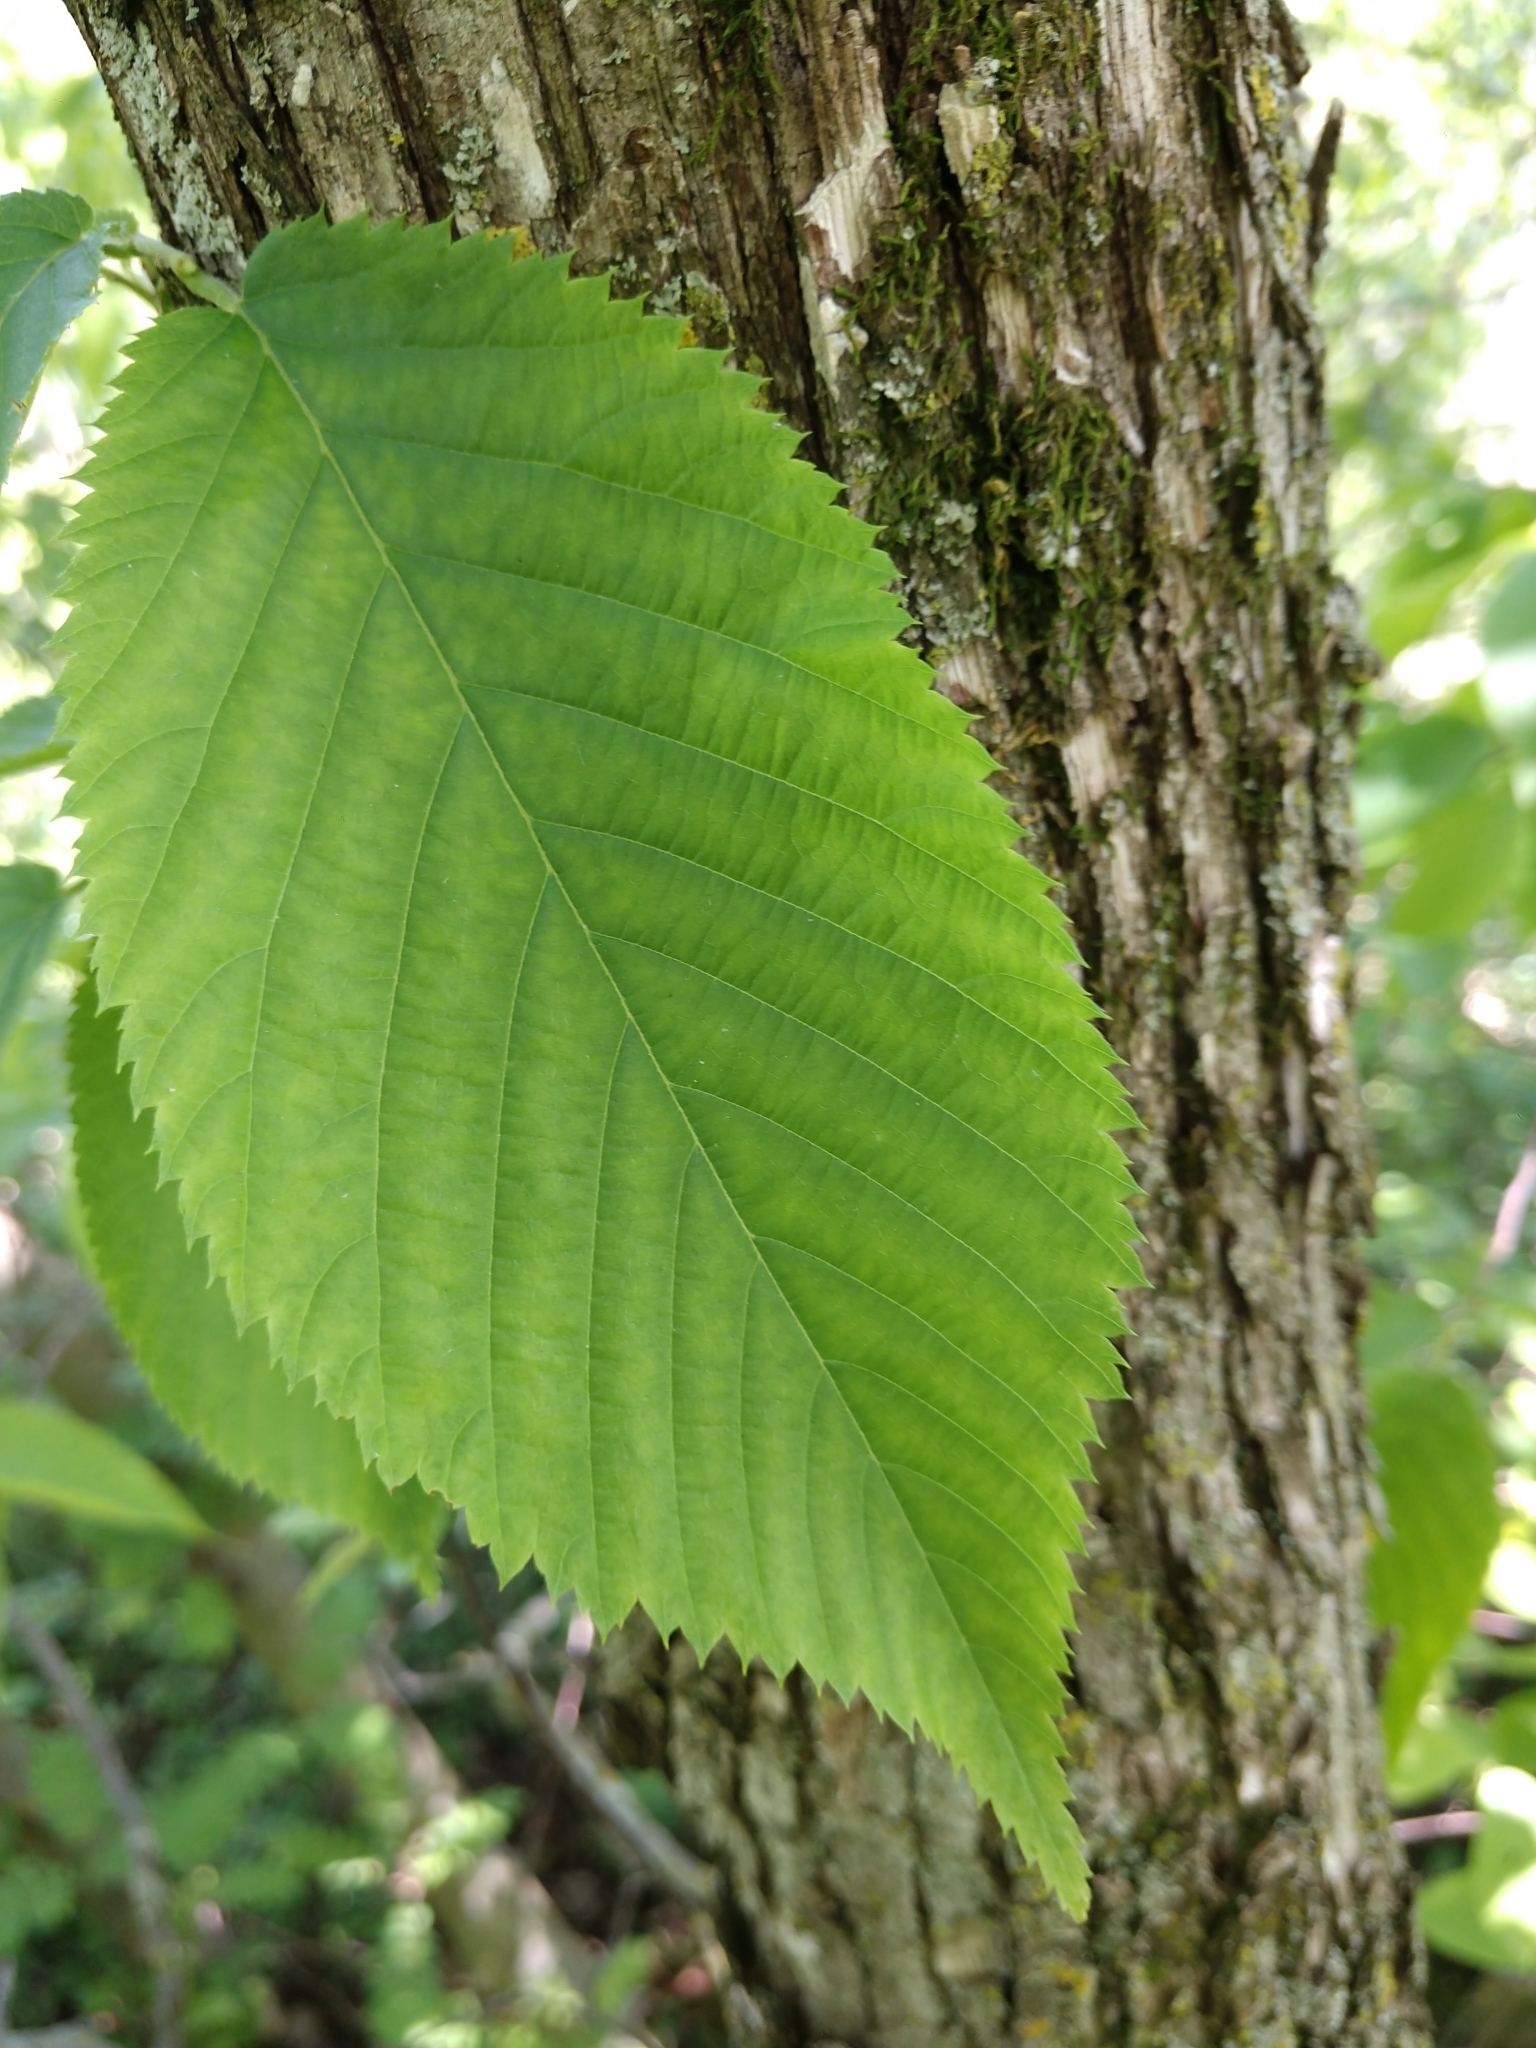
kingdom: Plantae
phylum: Tracheophyta
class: Magnoliopsida
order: Fagales
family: Betulaceae
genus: Ostrya
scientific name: Ostrya virginiana
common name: Ironwood
